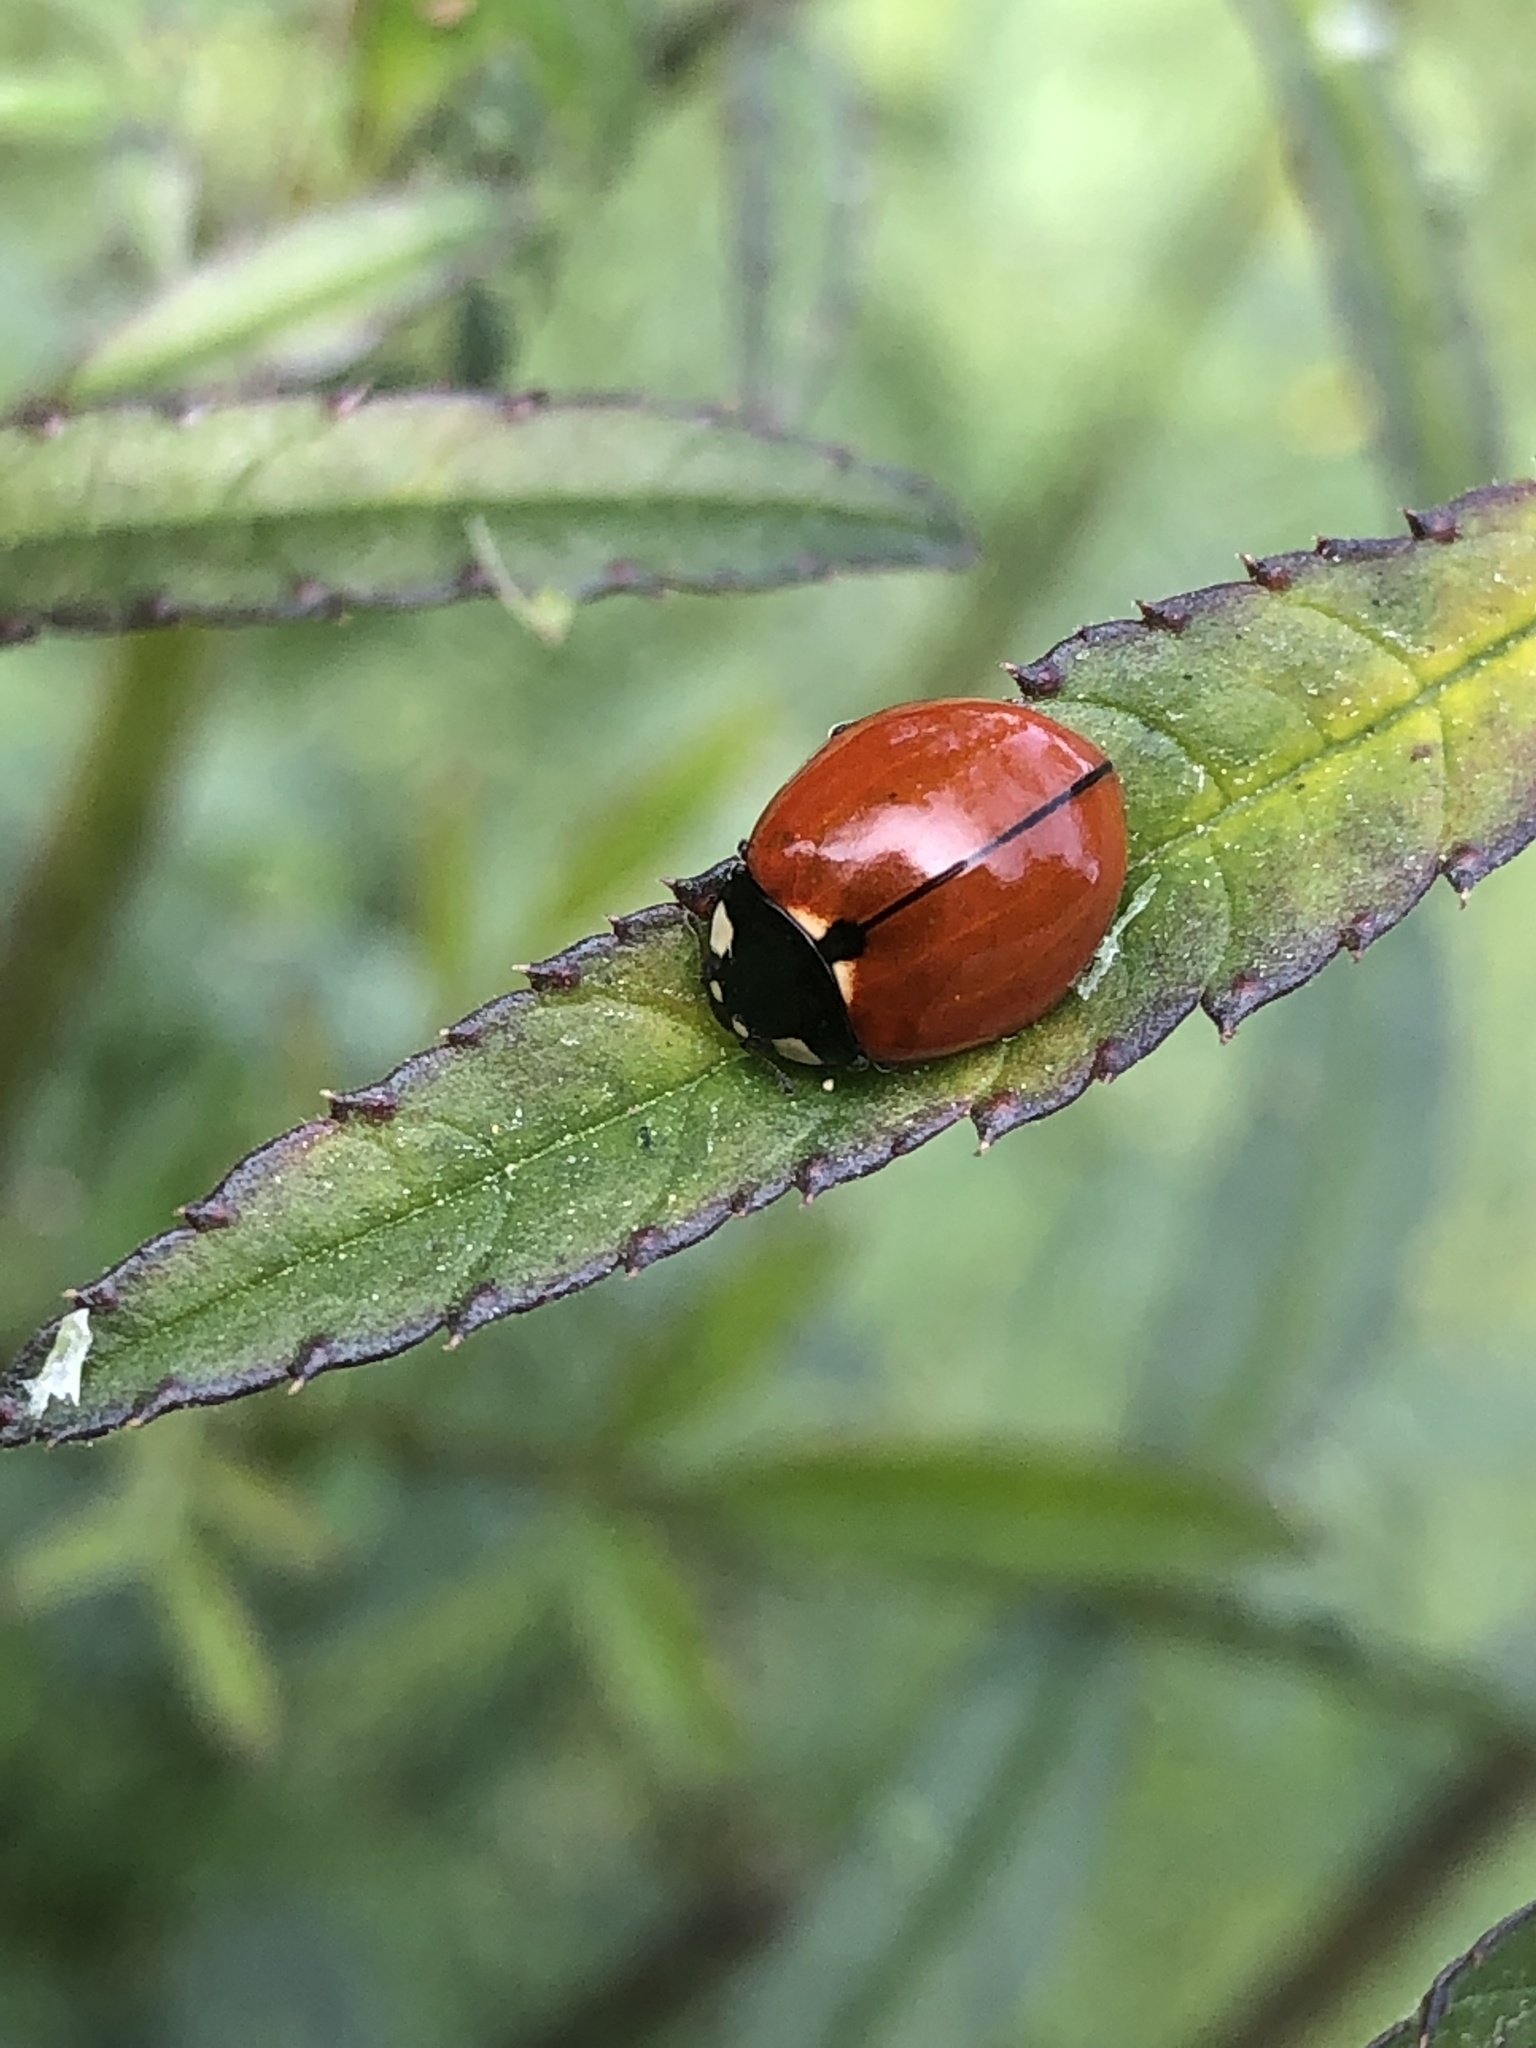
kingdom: Animalia
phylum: Arthropoda
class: Insecta
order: Coleoptera
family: Coccinellidae
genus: Coccinella
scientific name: Coccinella californica
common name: Lady beetle
